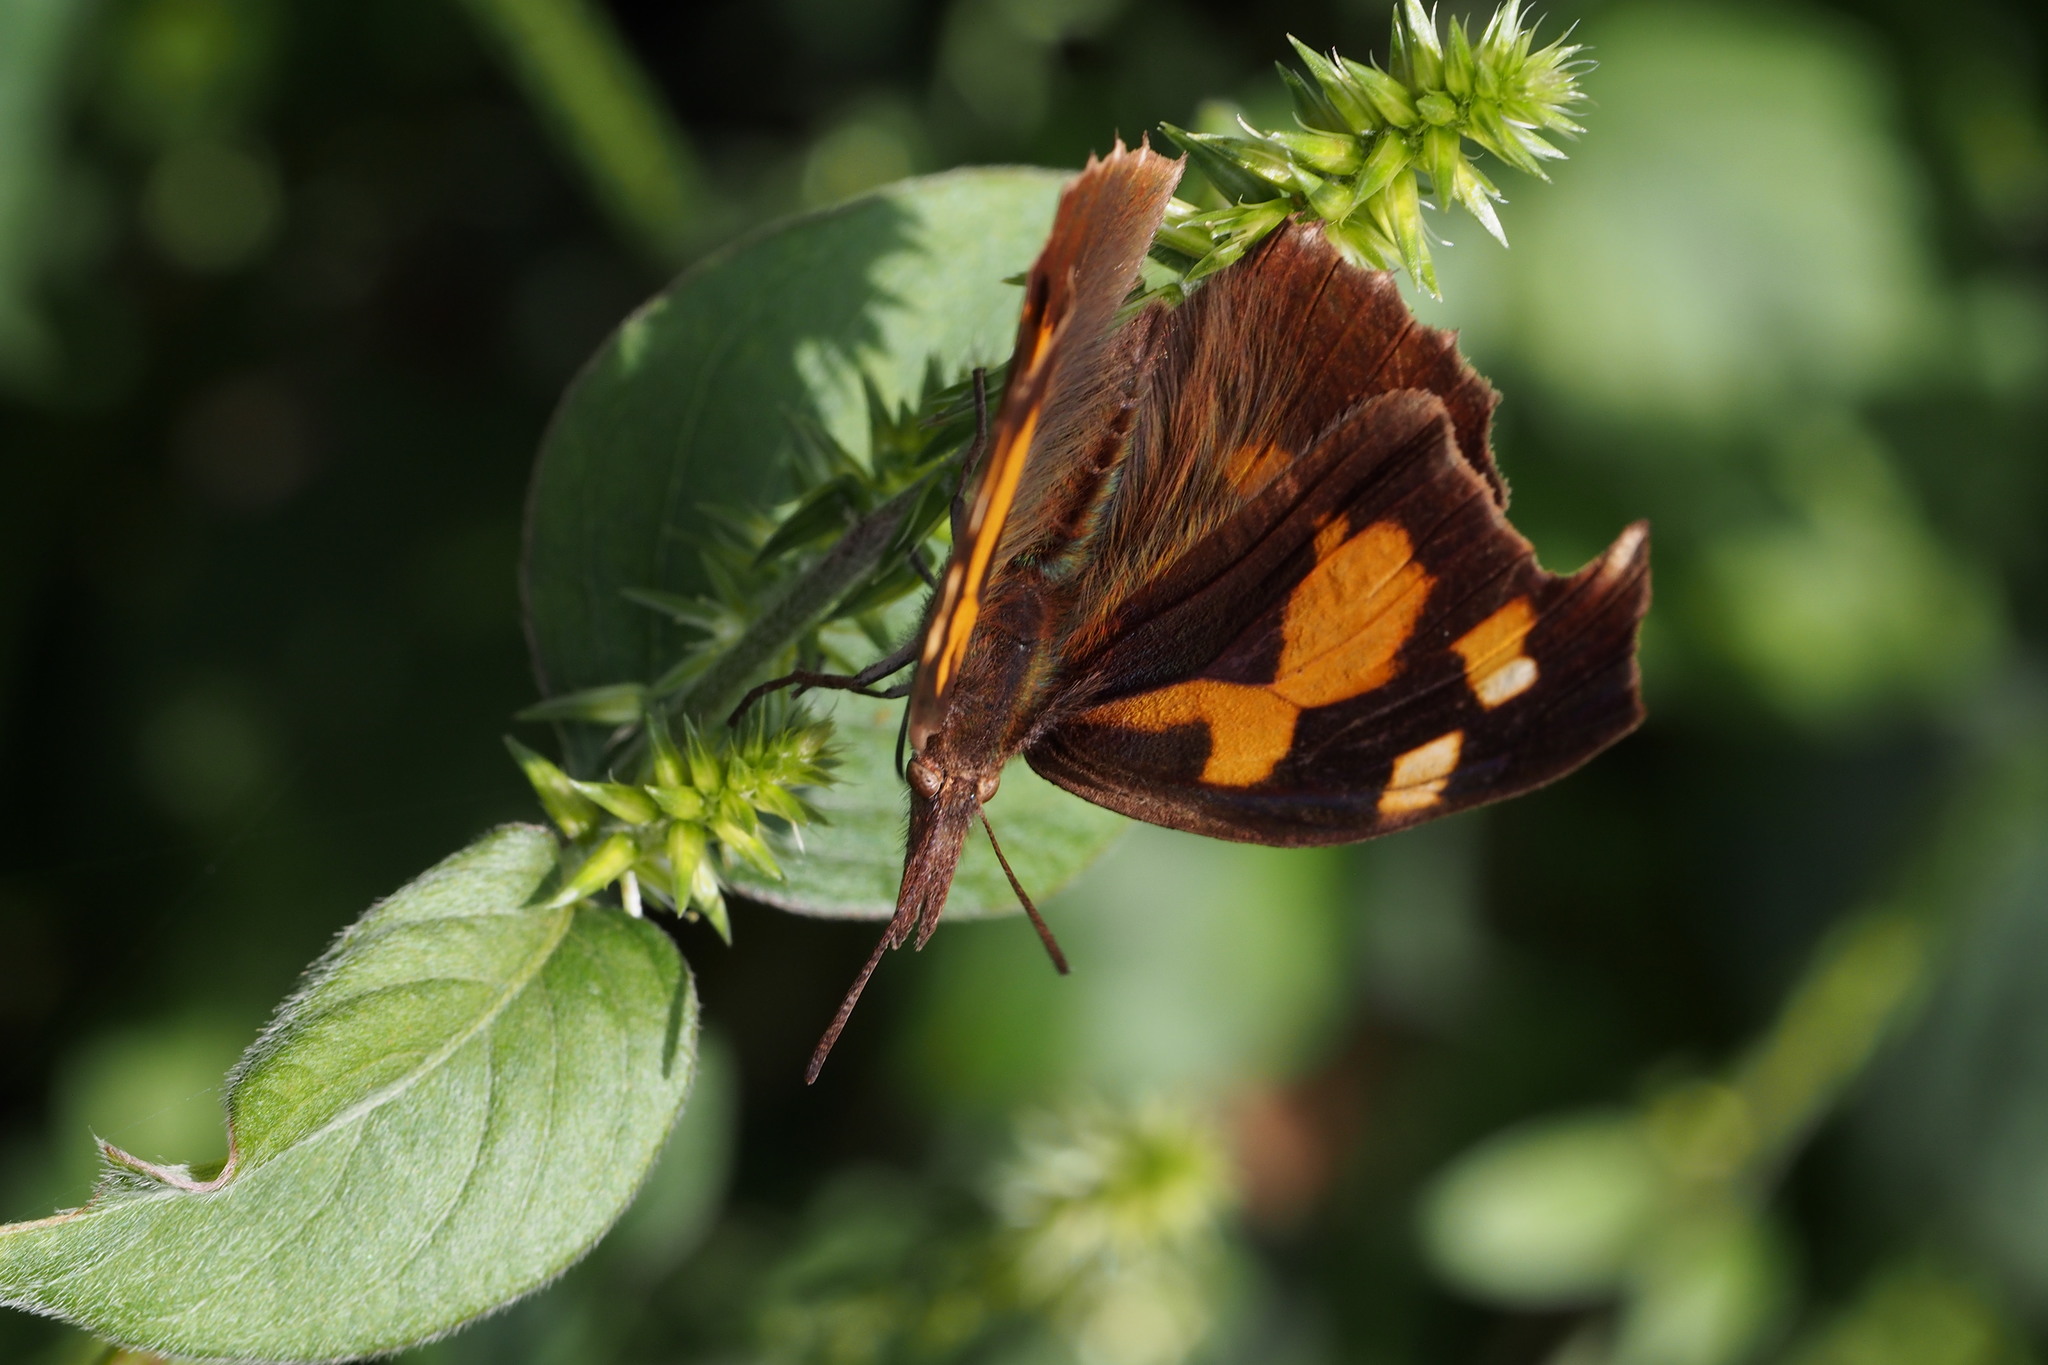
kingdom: Animalia
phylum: Arthropoda
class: Insecta
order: Lepidoptera
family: Nymphalidae
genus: Libythea
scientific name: Libythea lepita
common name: Common beak
